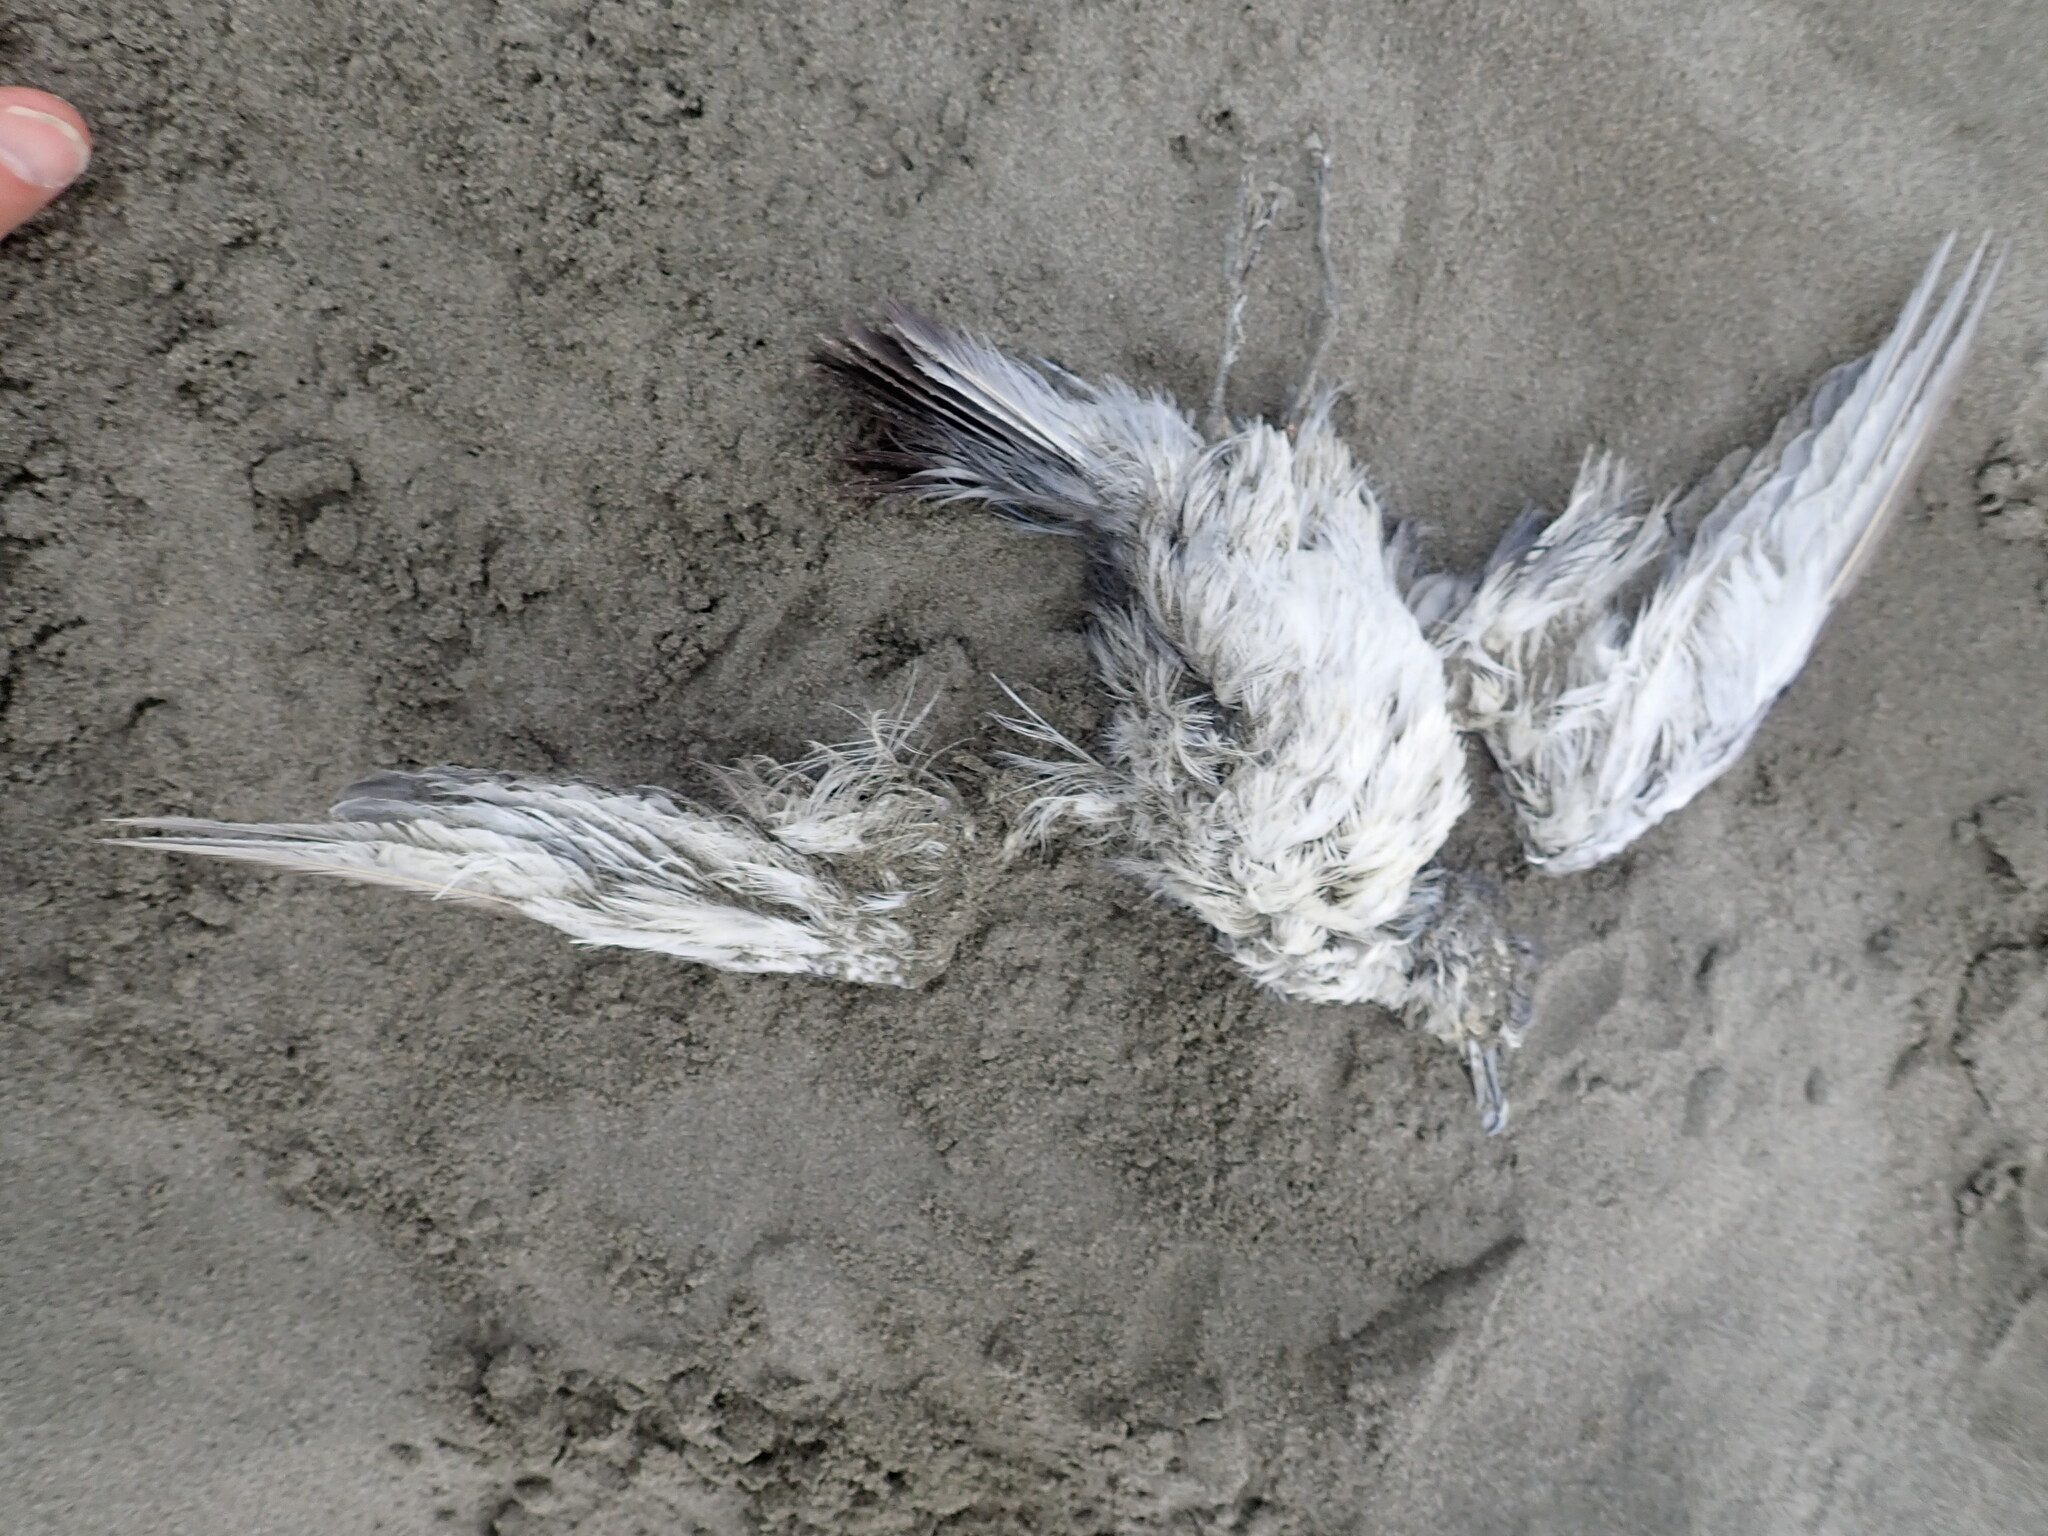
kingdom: Animalia
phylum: Chordata
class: Aves
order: Procellariiformes
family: Procellariidae
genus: Pachyptila
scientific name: Pachyptila turtur
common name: Fairy prion
